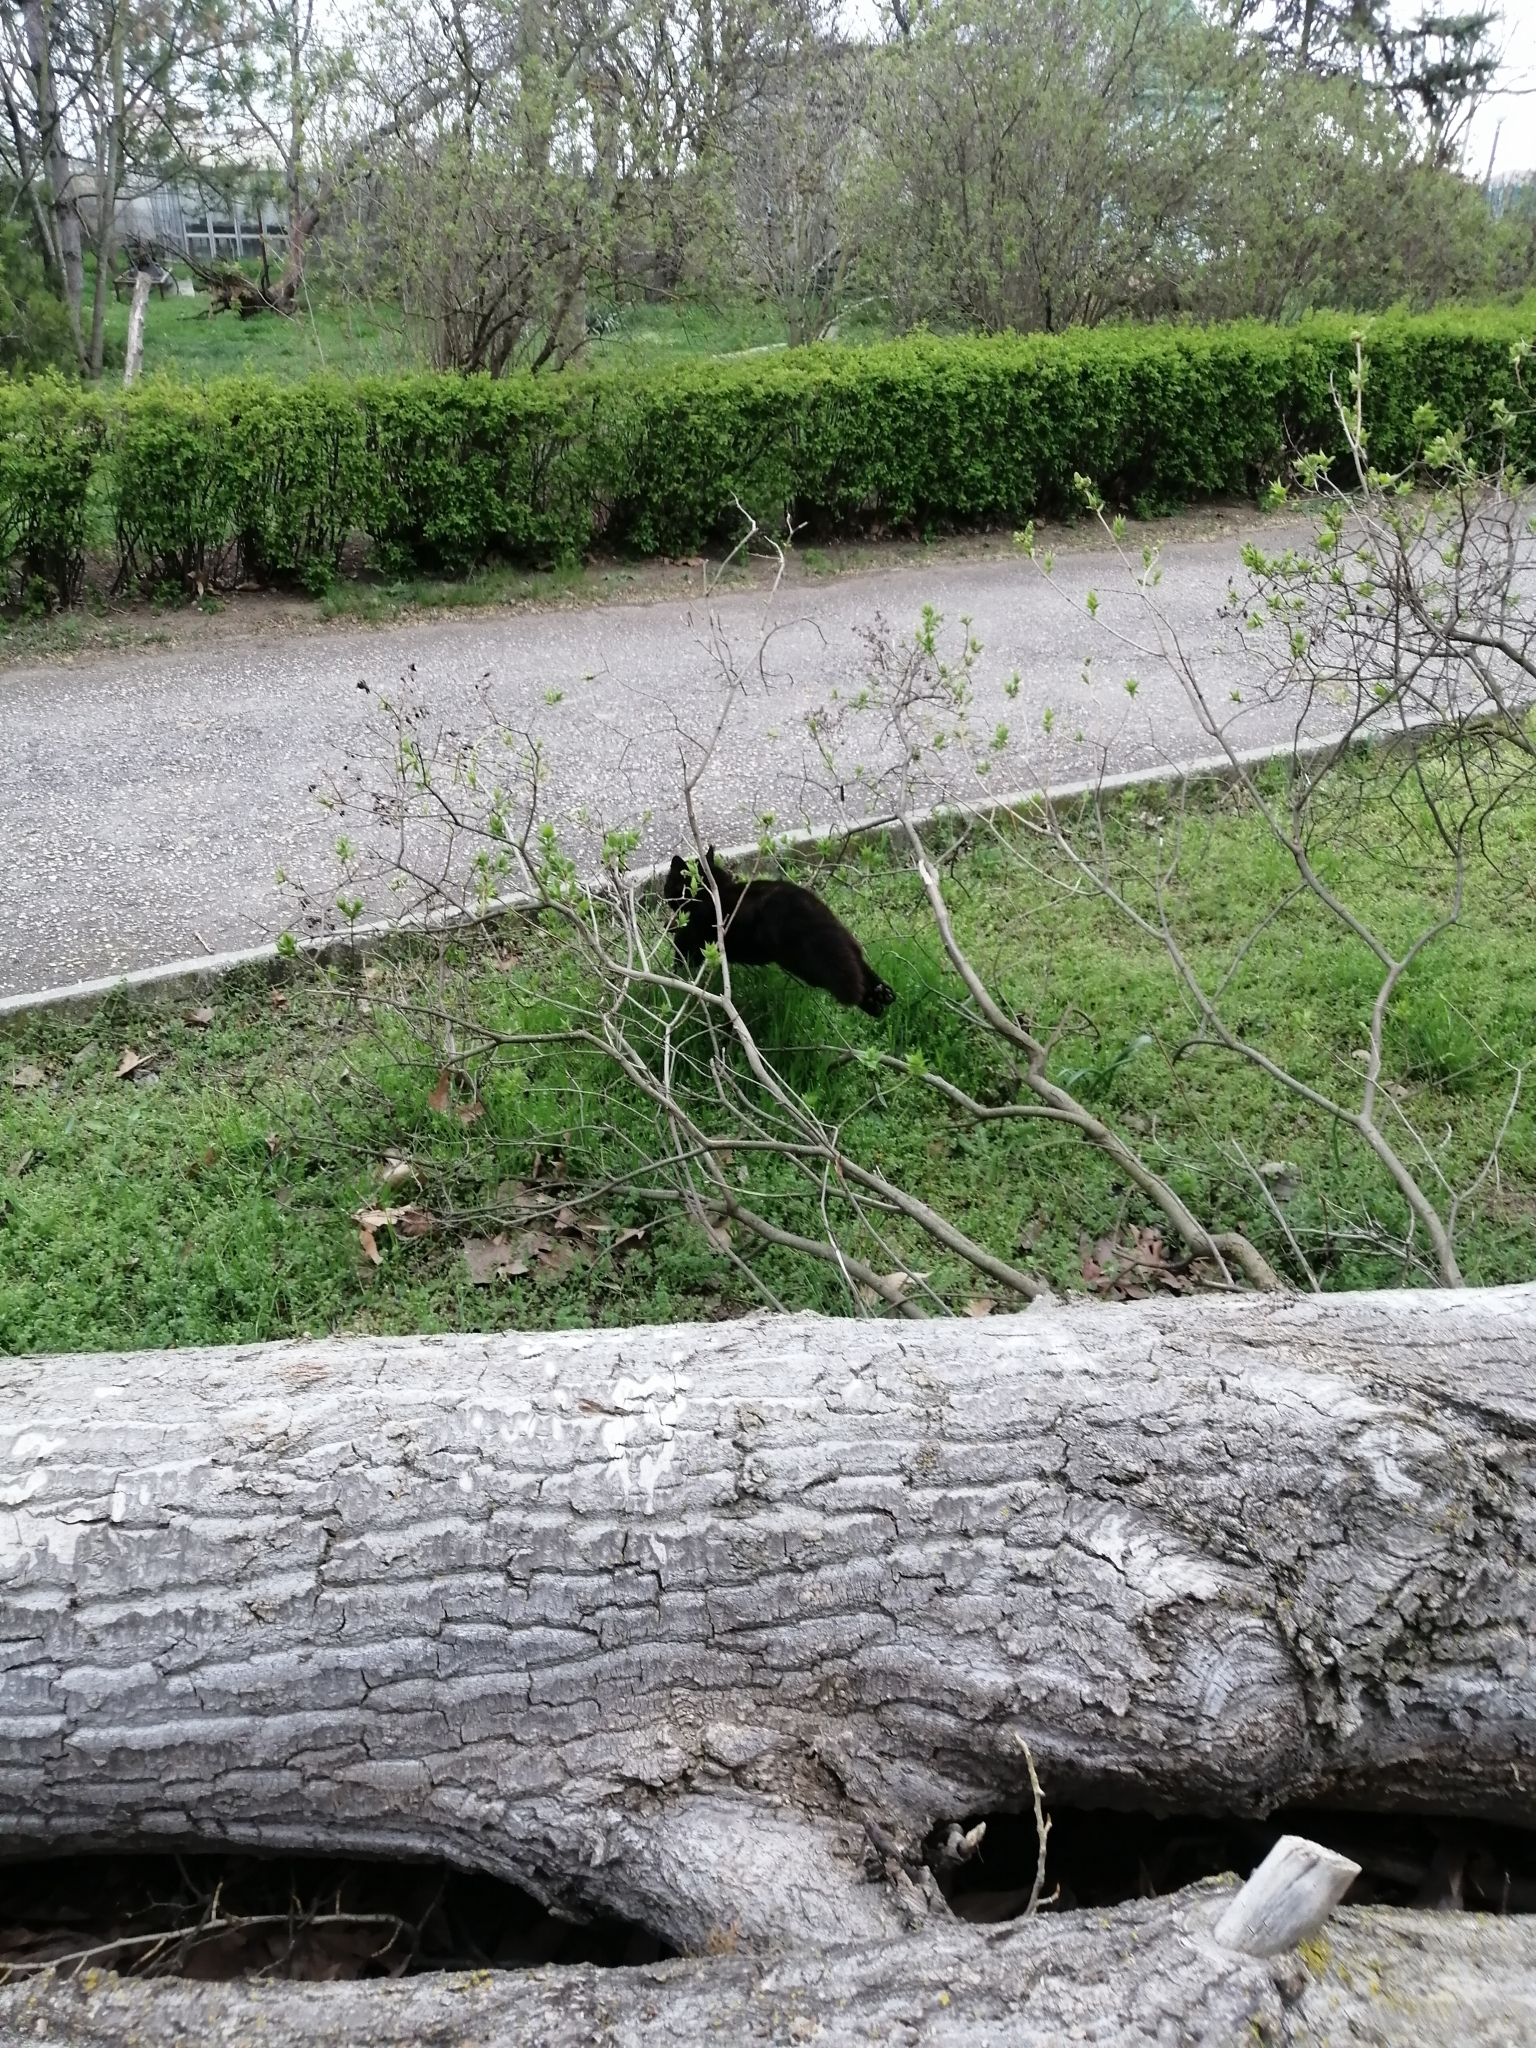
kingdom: Animalia
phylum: Chordata
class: Mammalia
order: Carnivora
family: Felidae
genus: Felis
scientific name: Felis catus
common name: Domestic cat
